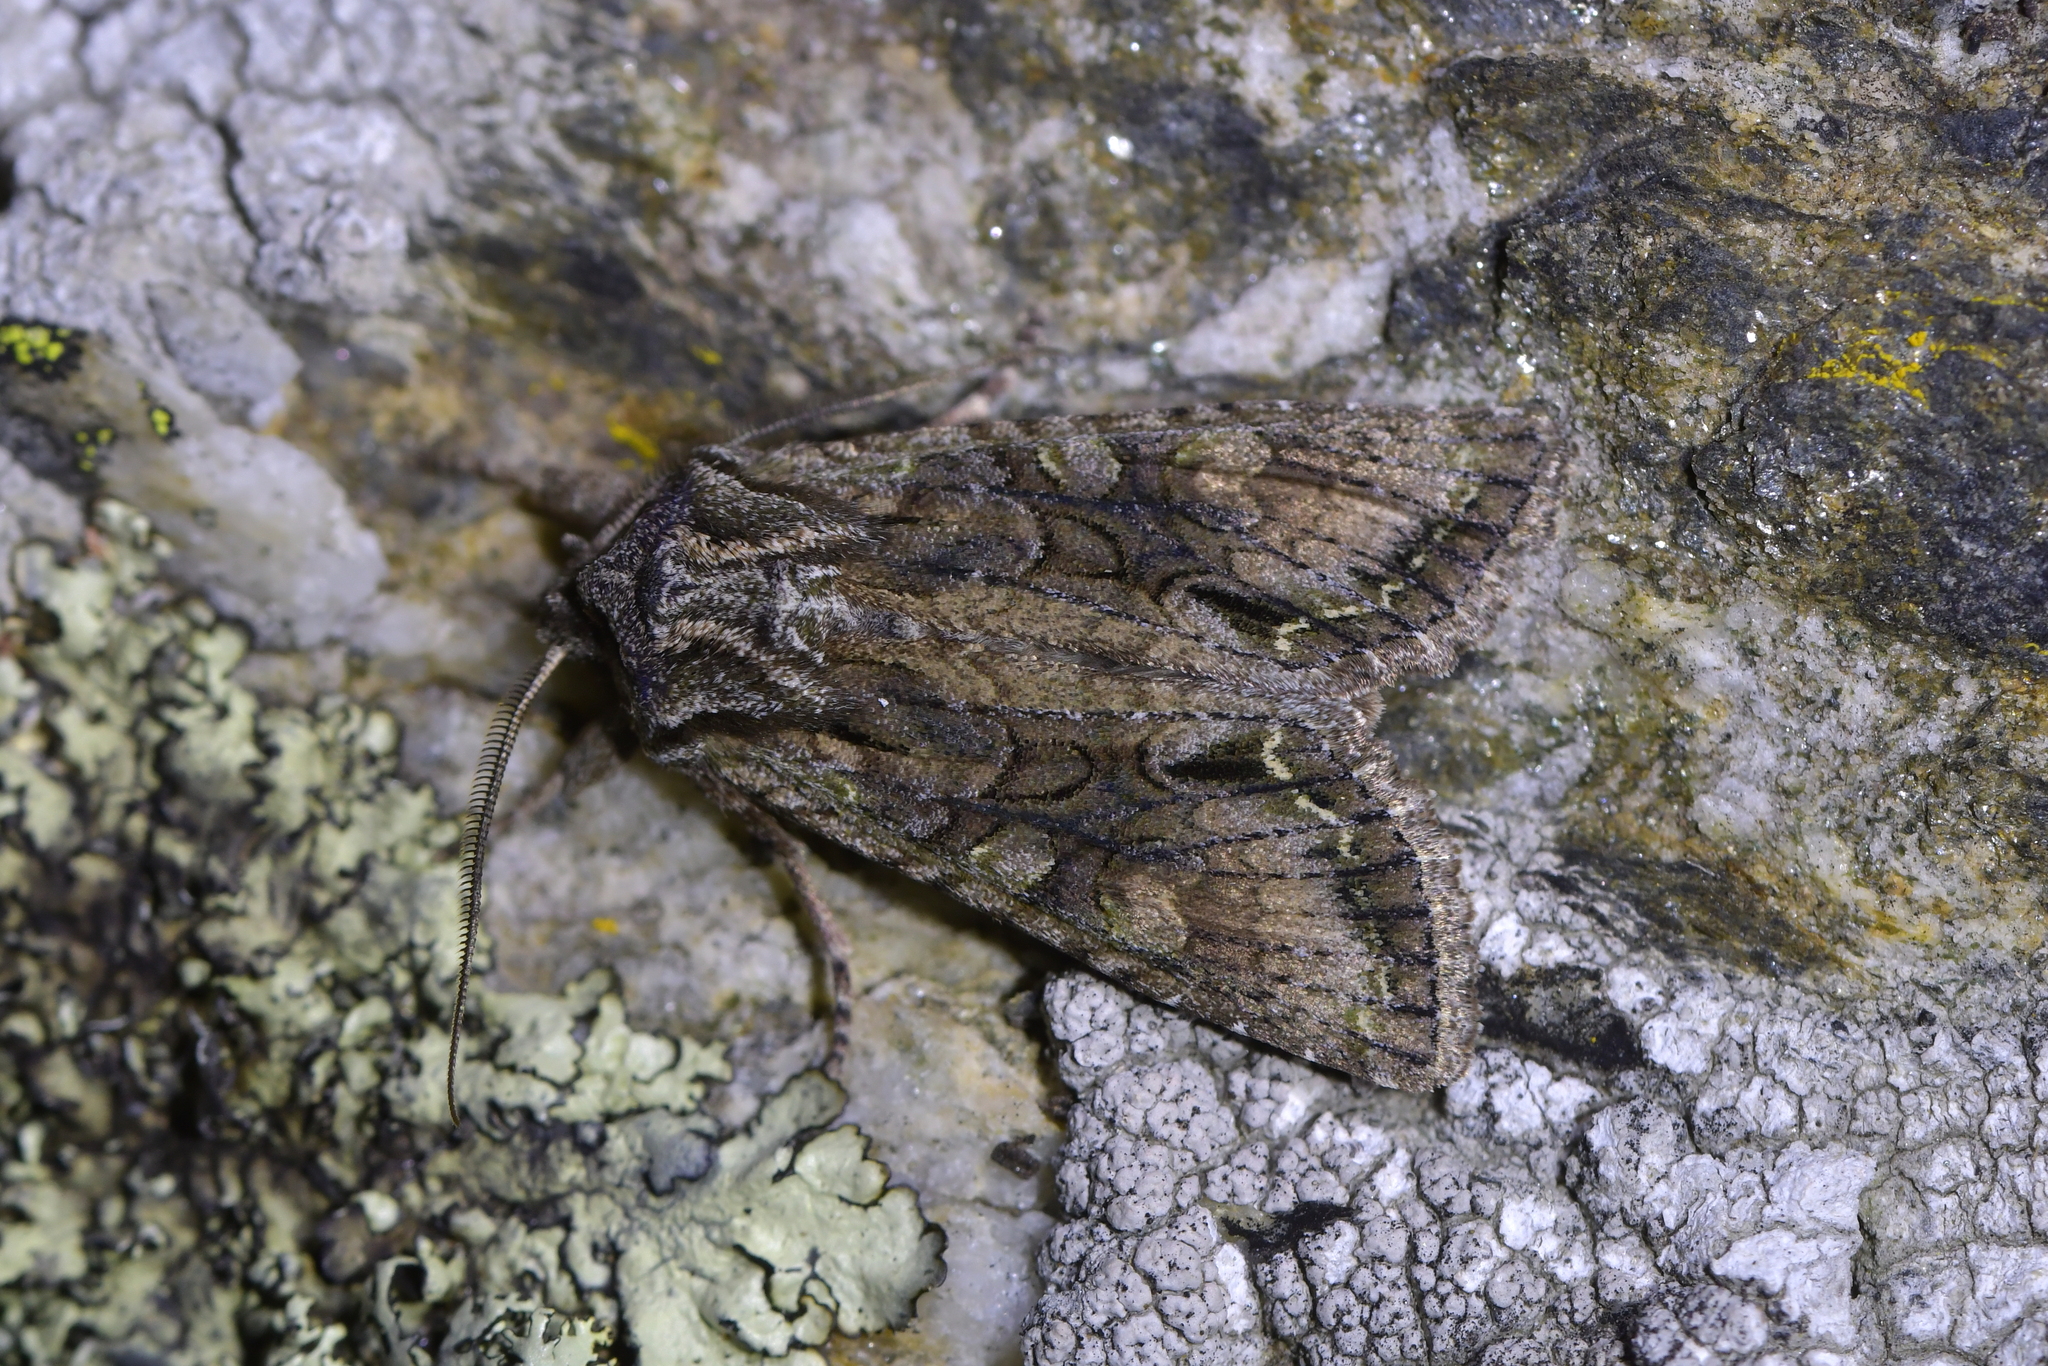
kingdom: Animalia
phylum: Arthropoda
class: Insecta
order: Lepidoptera
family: Noctuidae
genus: Ichneutica
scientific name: Ichneutica mutans
